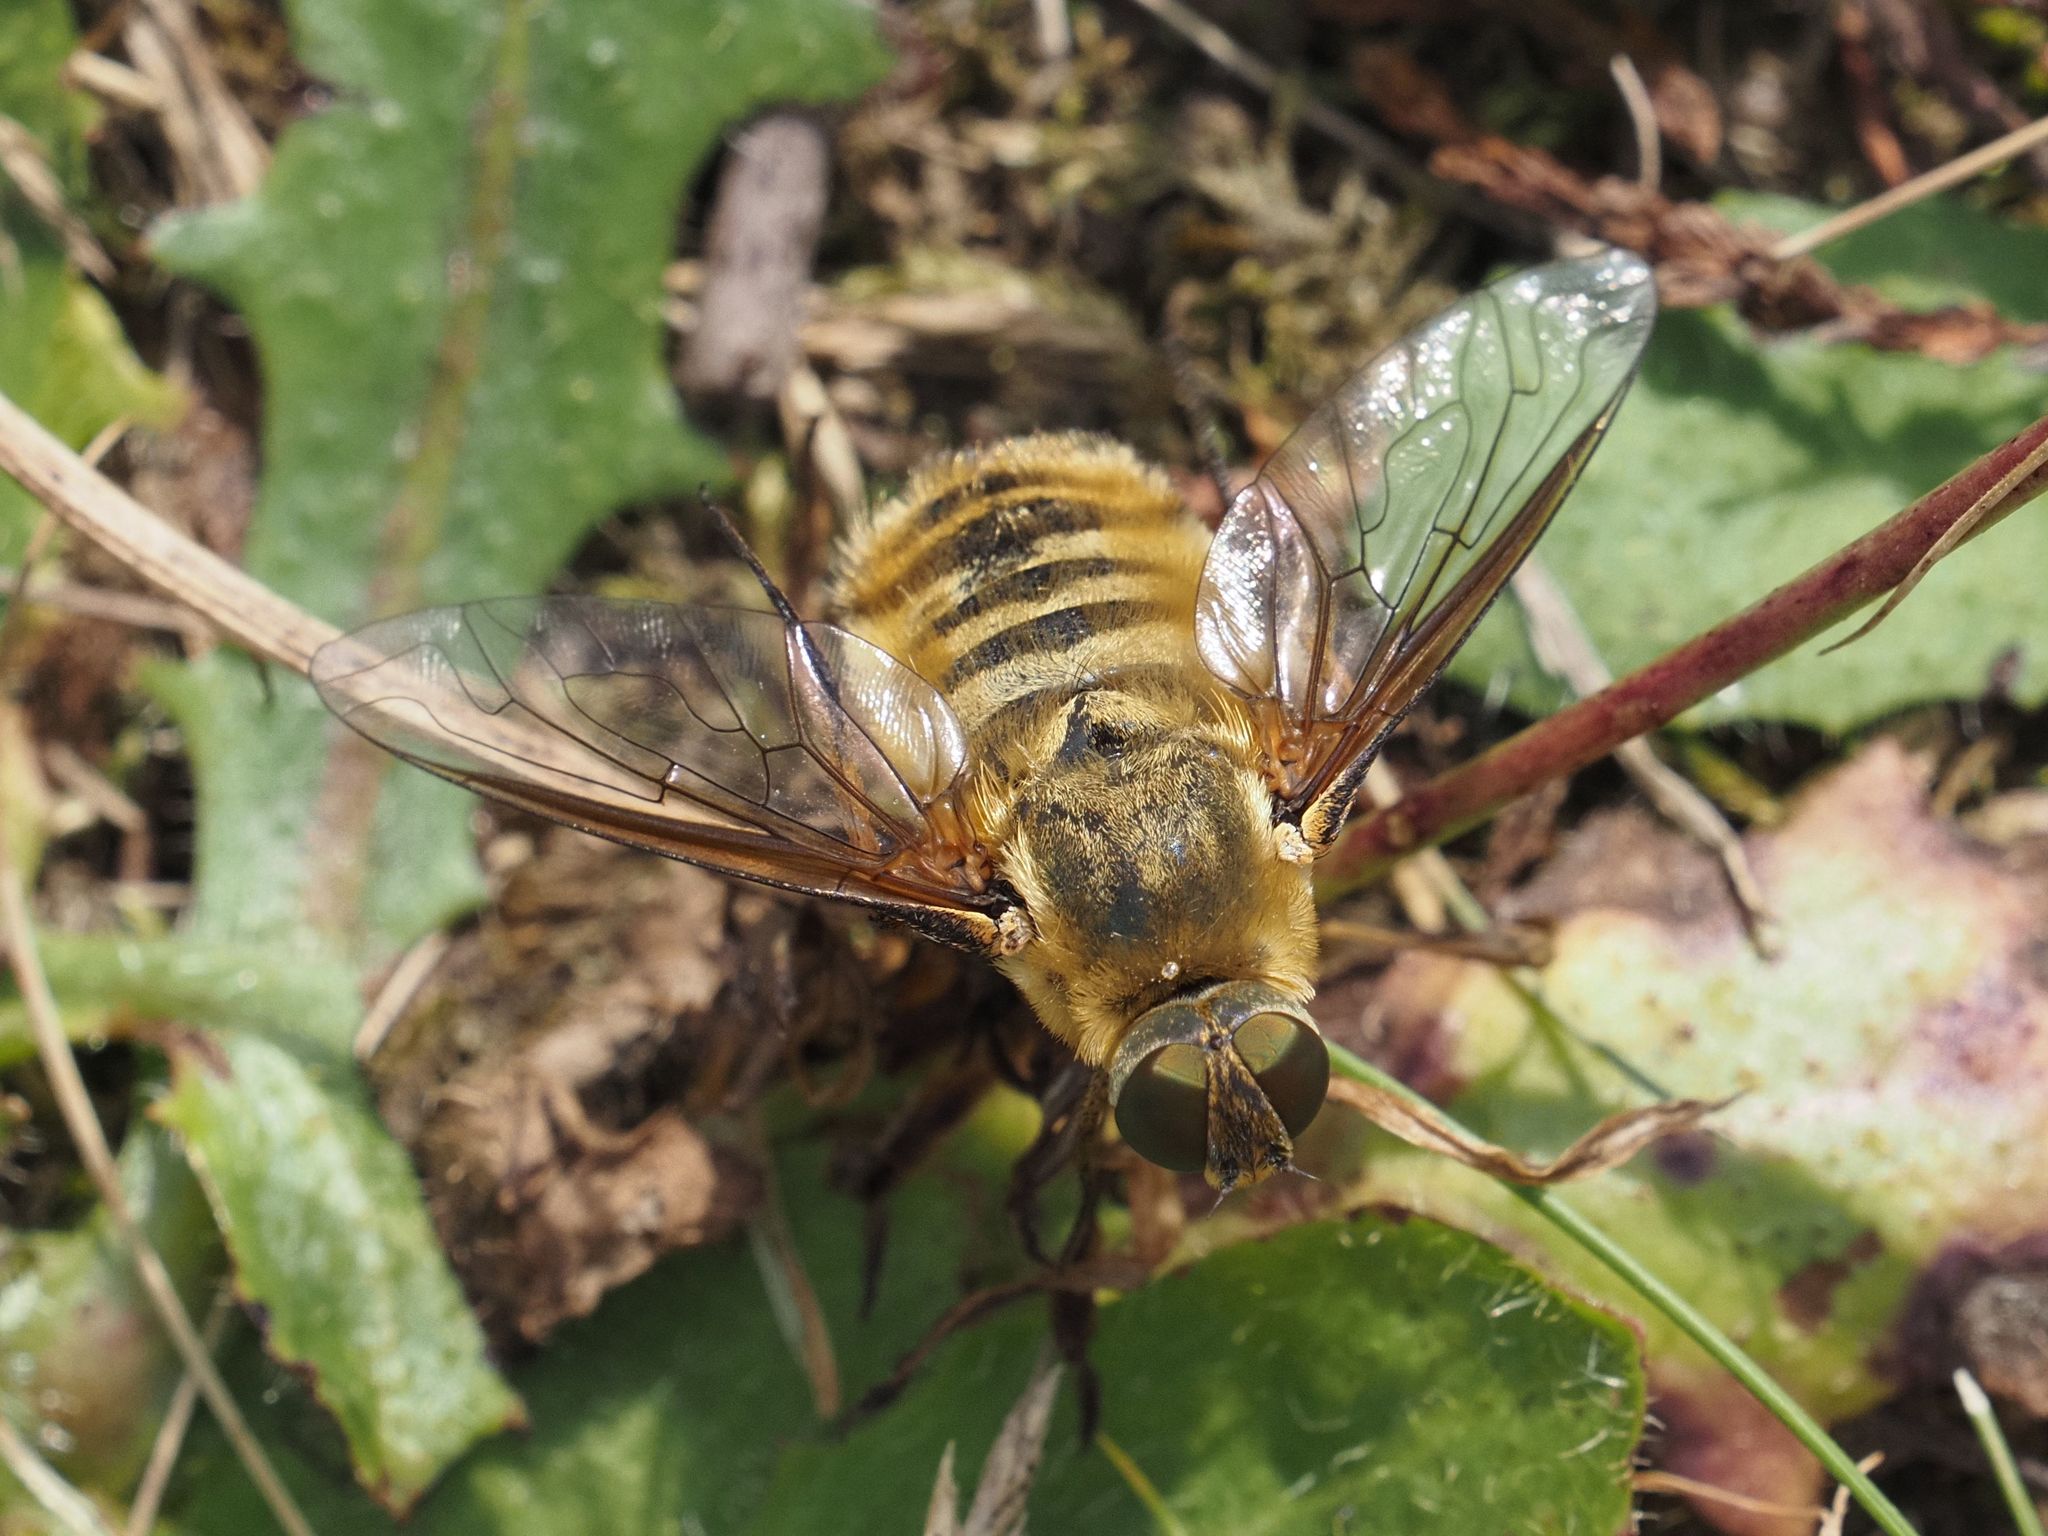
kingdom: Animalia
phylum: Arthropoda
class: Insecta
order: Diptera
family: Bombyliidae
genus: Villa
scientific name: Villa hottentotta
